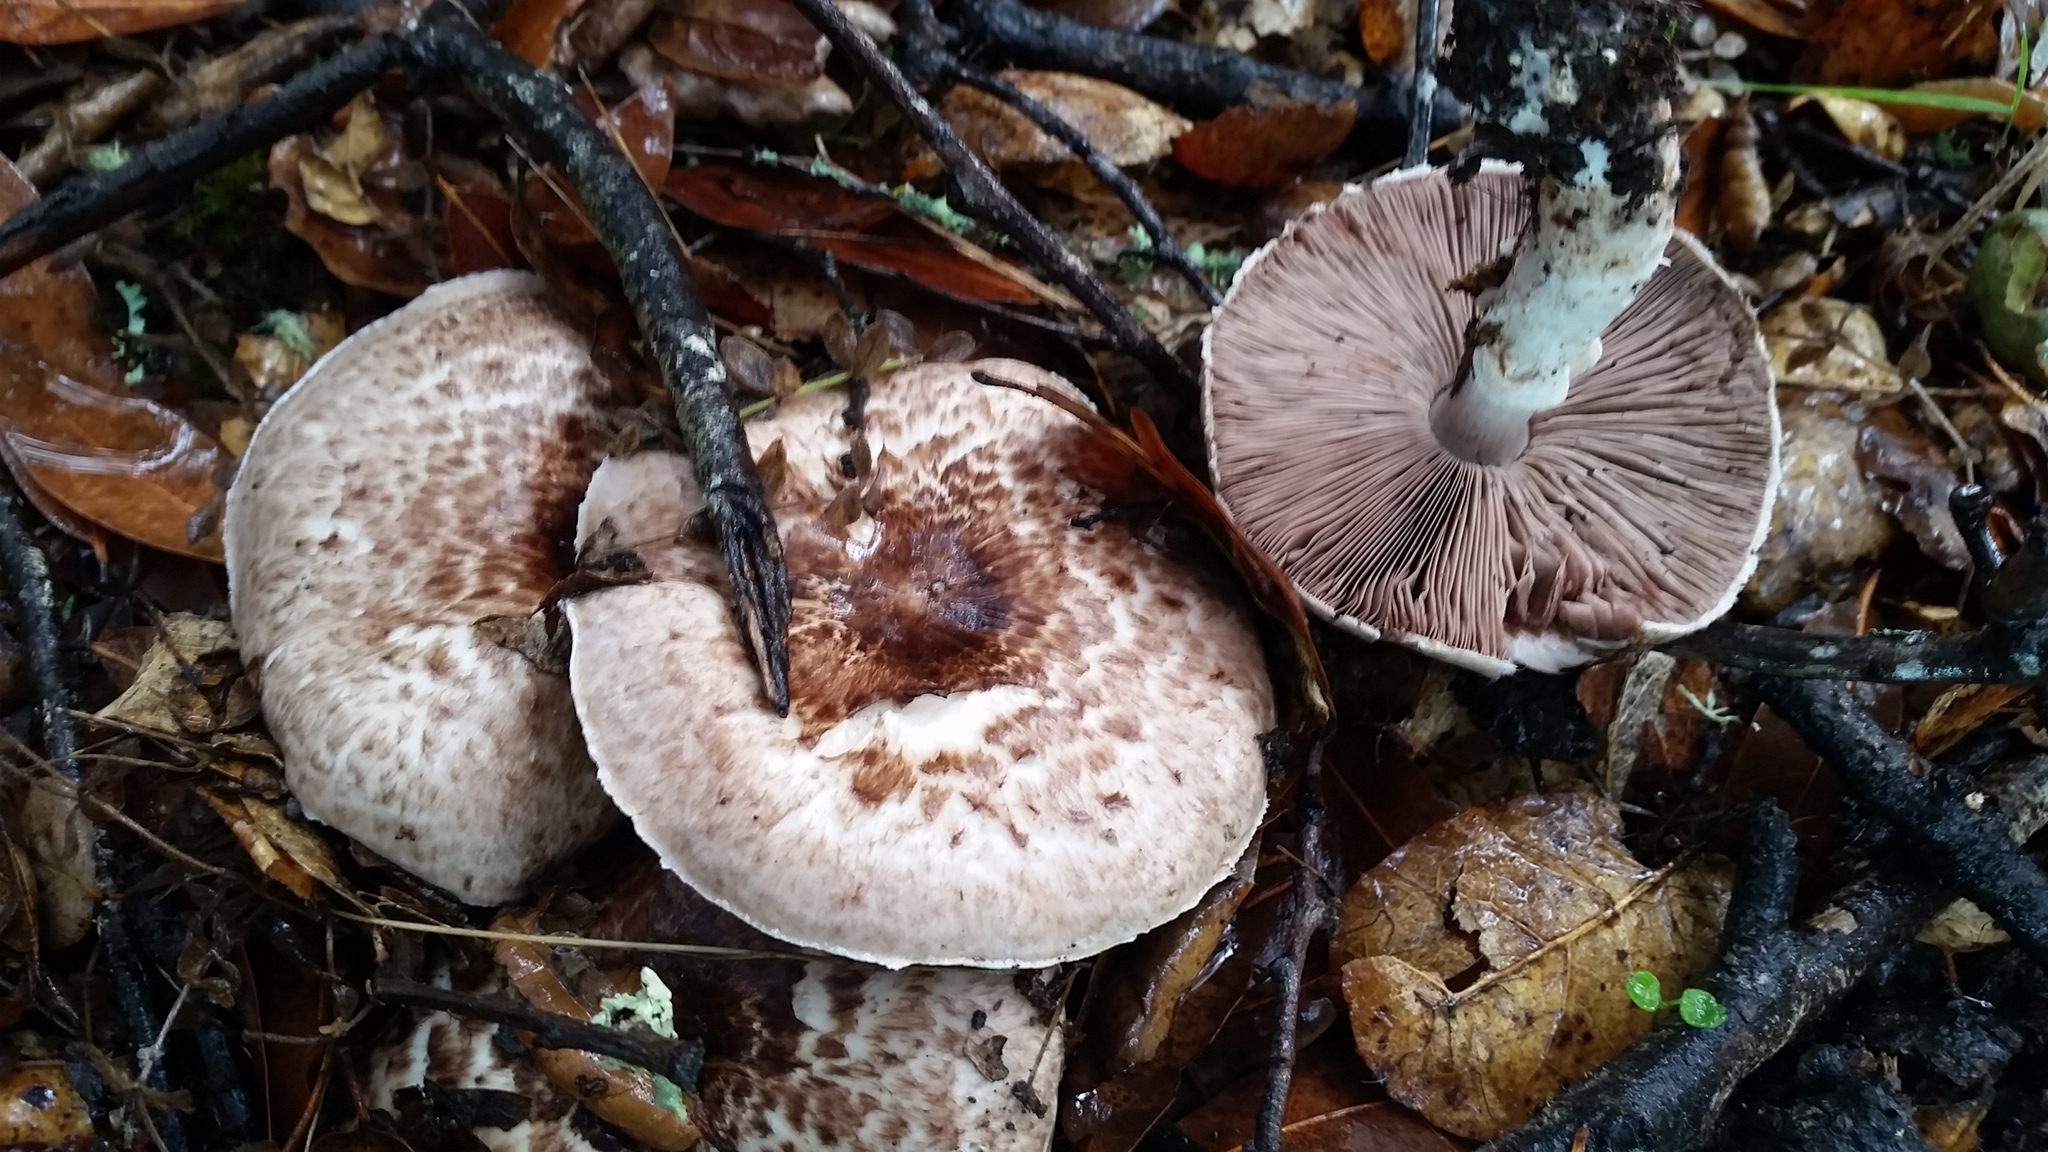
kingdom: Fungi
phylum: Basidiomycota
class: Agaricomycetes
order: Agaricales
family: Agaricaceae
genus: Agaricus
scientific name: Agaricus subrutilescens
